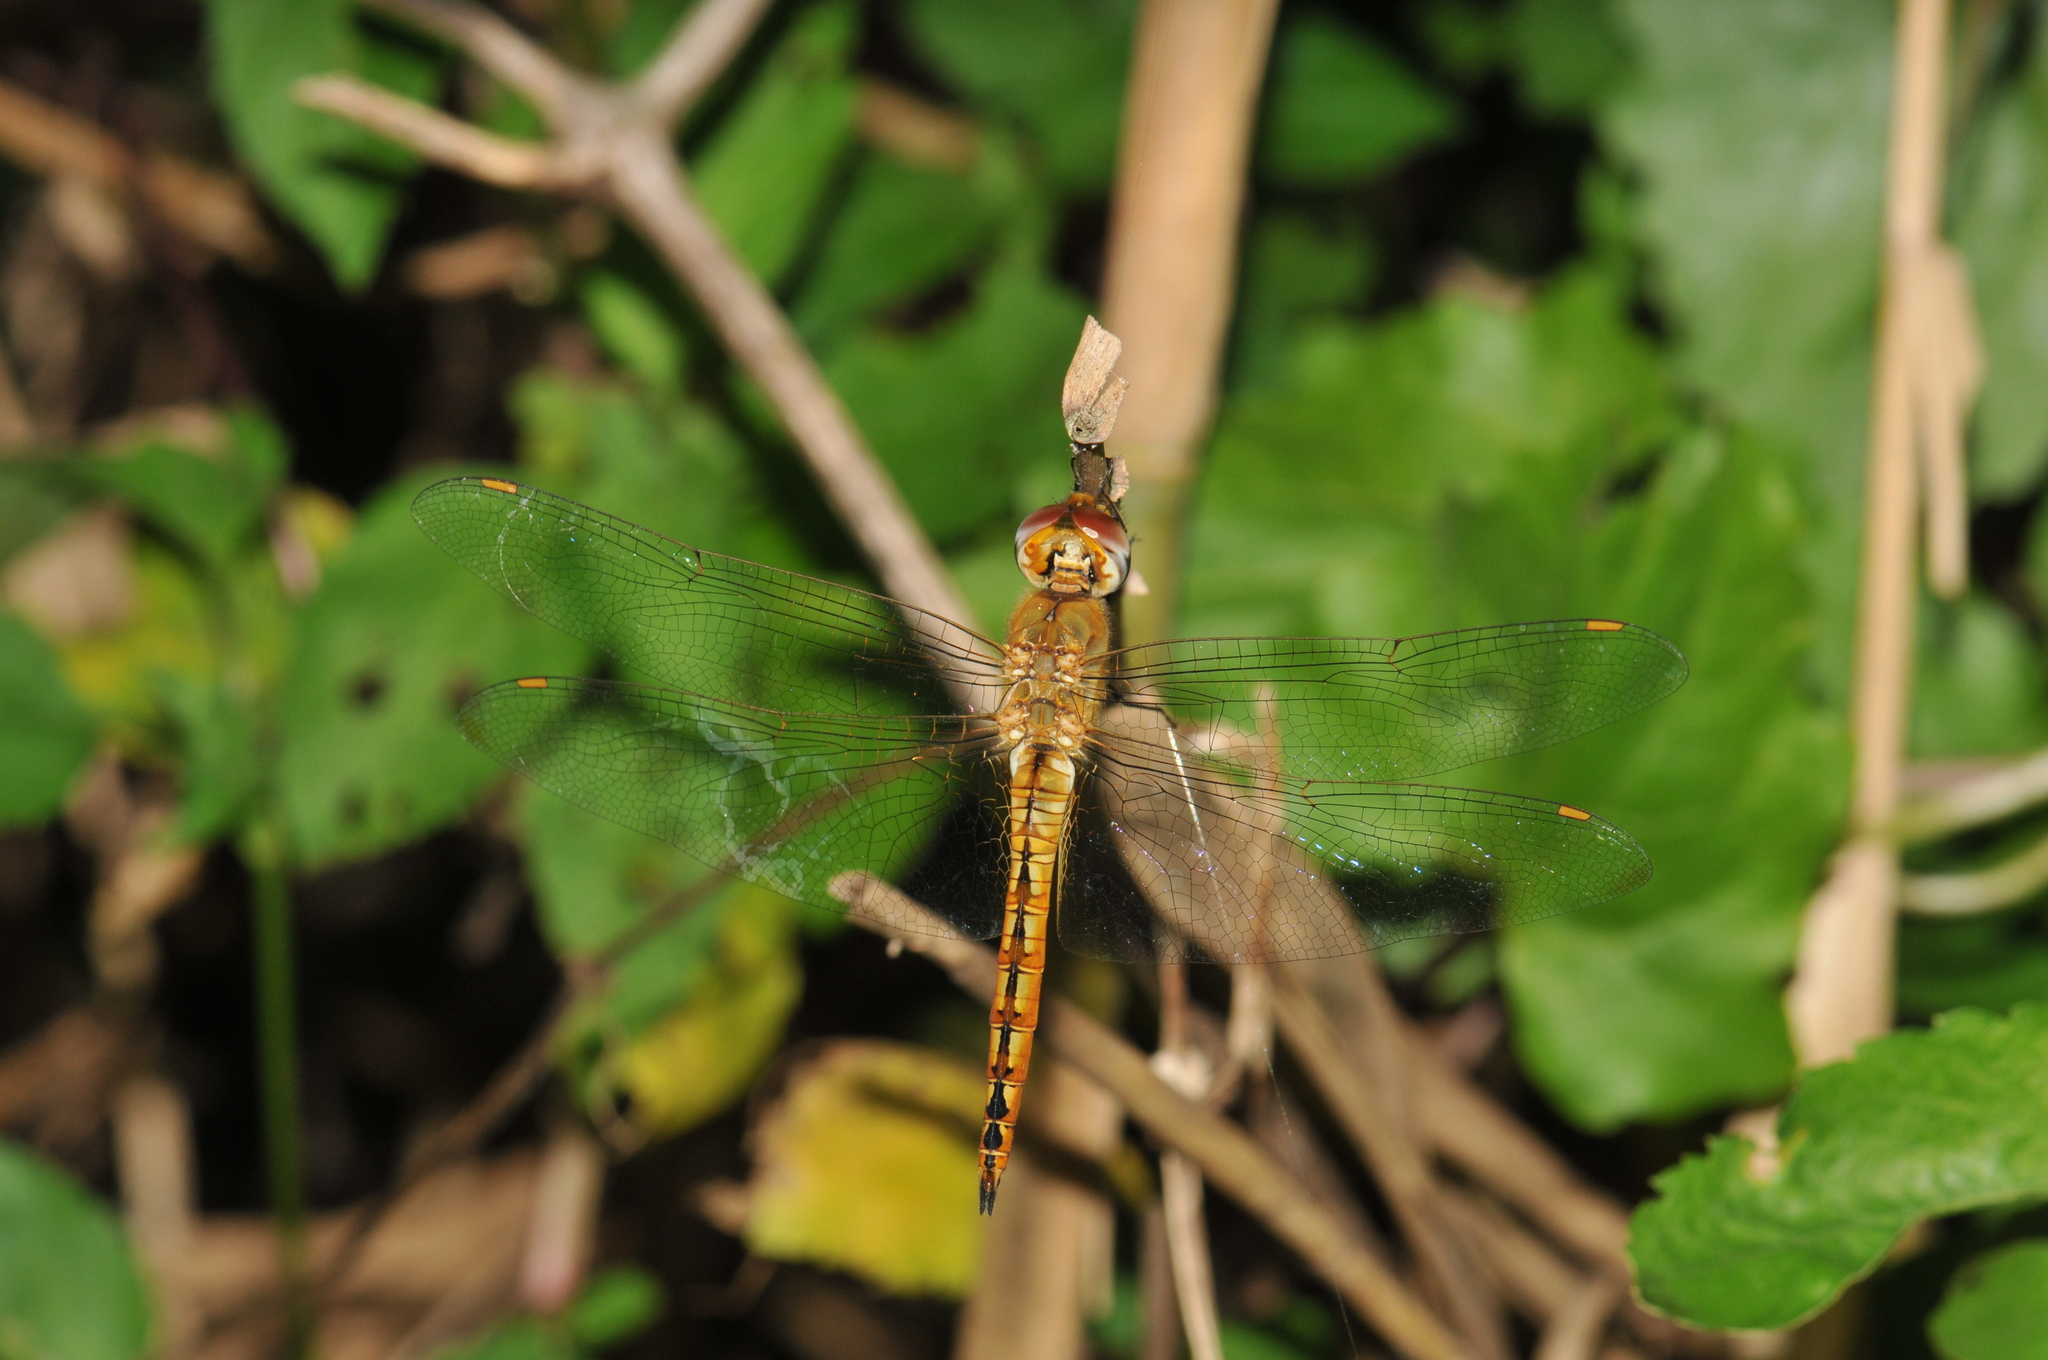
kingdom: Animalia
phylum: Arthropoda
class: Insecta
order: Odonata
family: Libellulidae
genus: Pantala
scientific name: Pantala flavescens
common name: Wandering glider
